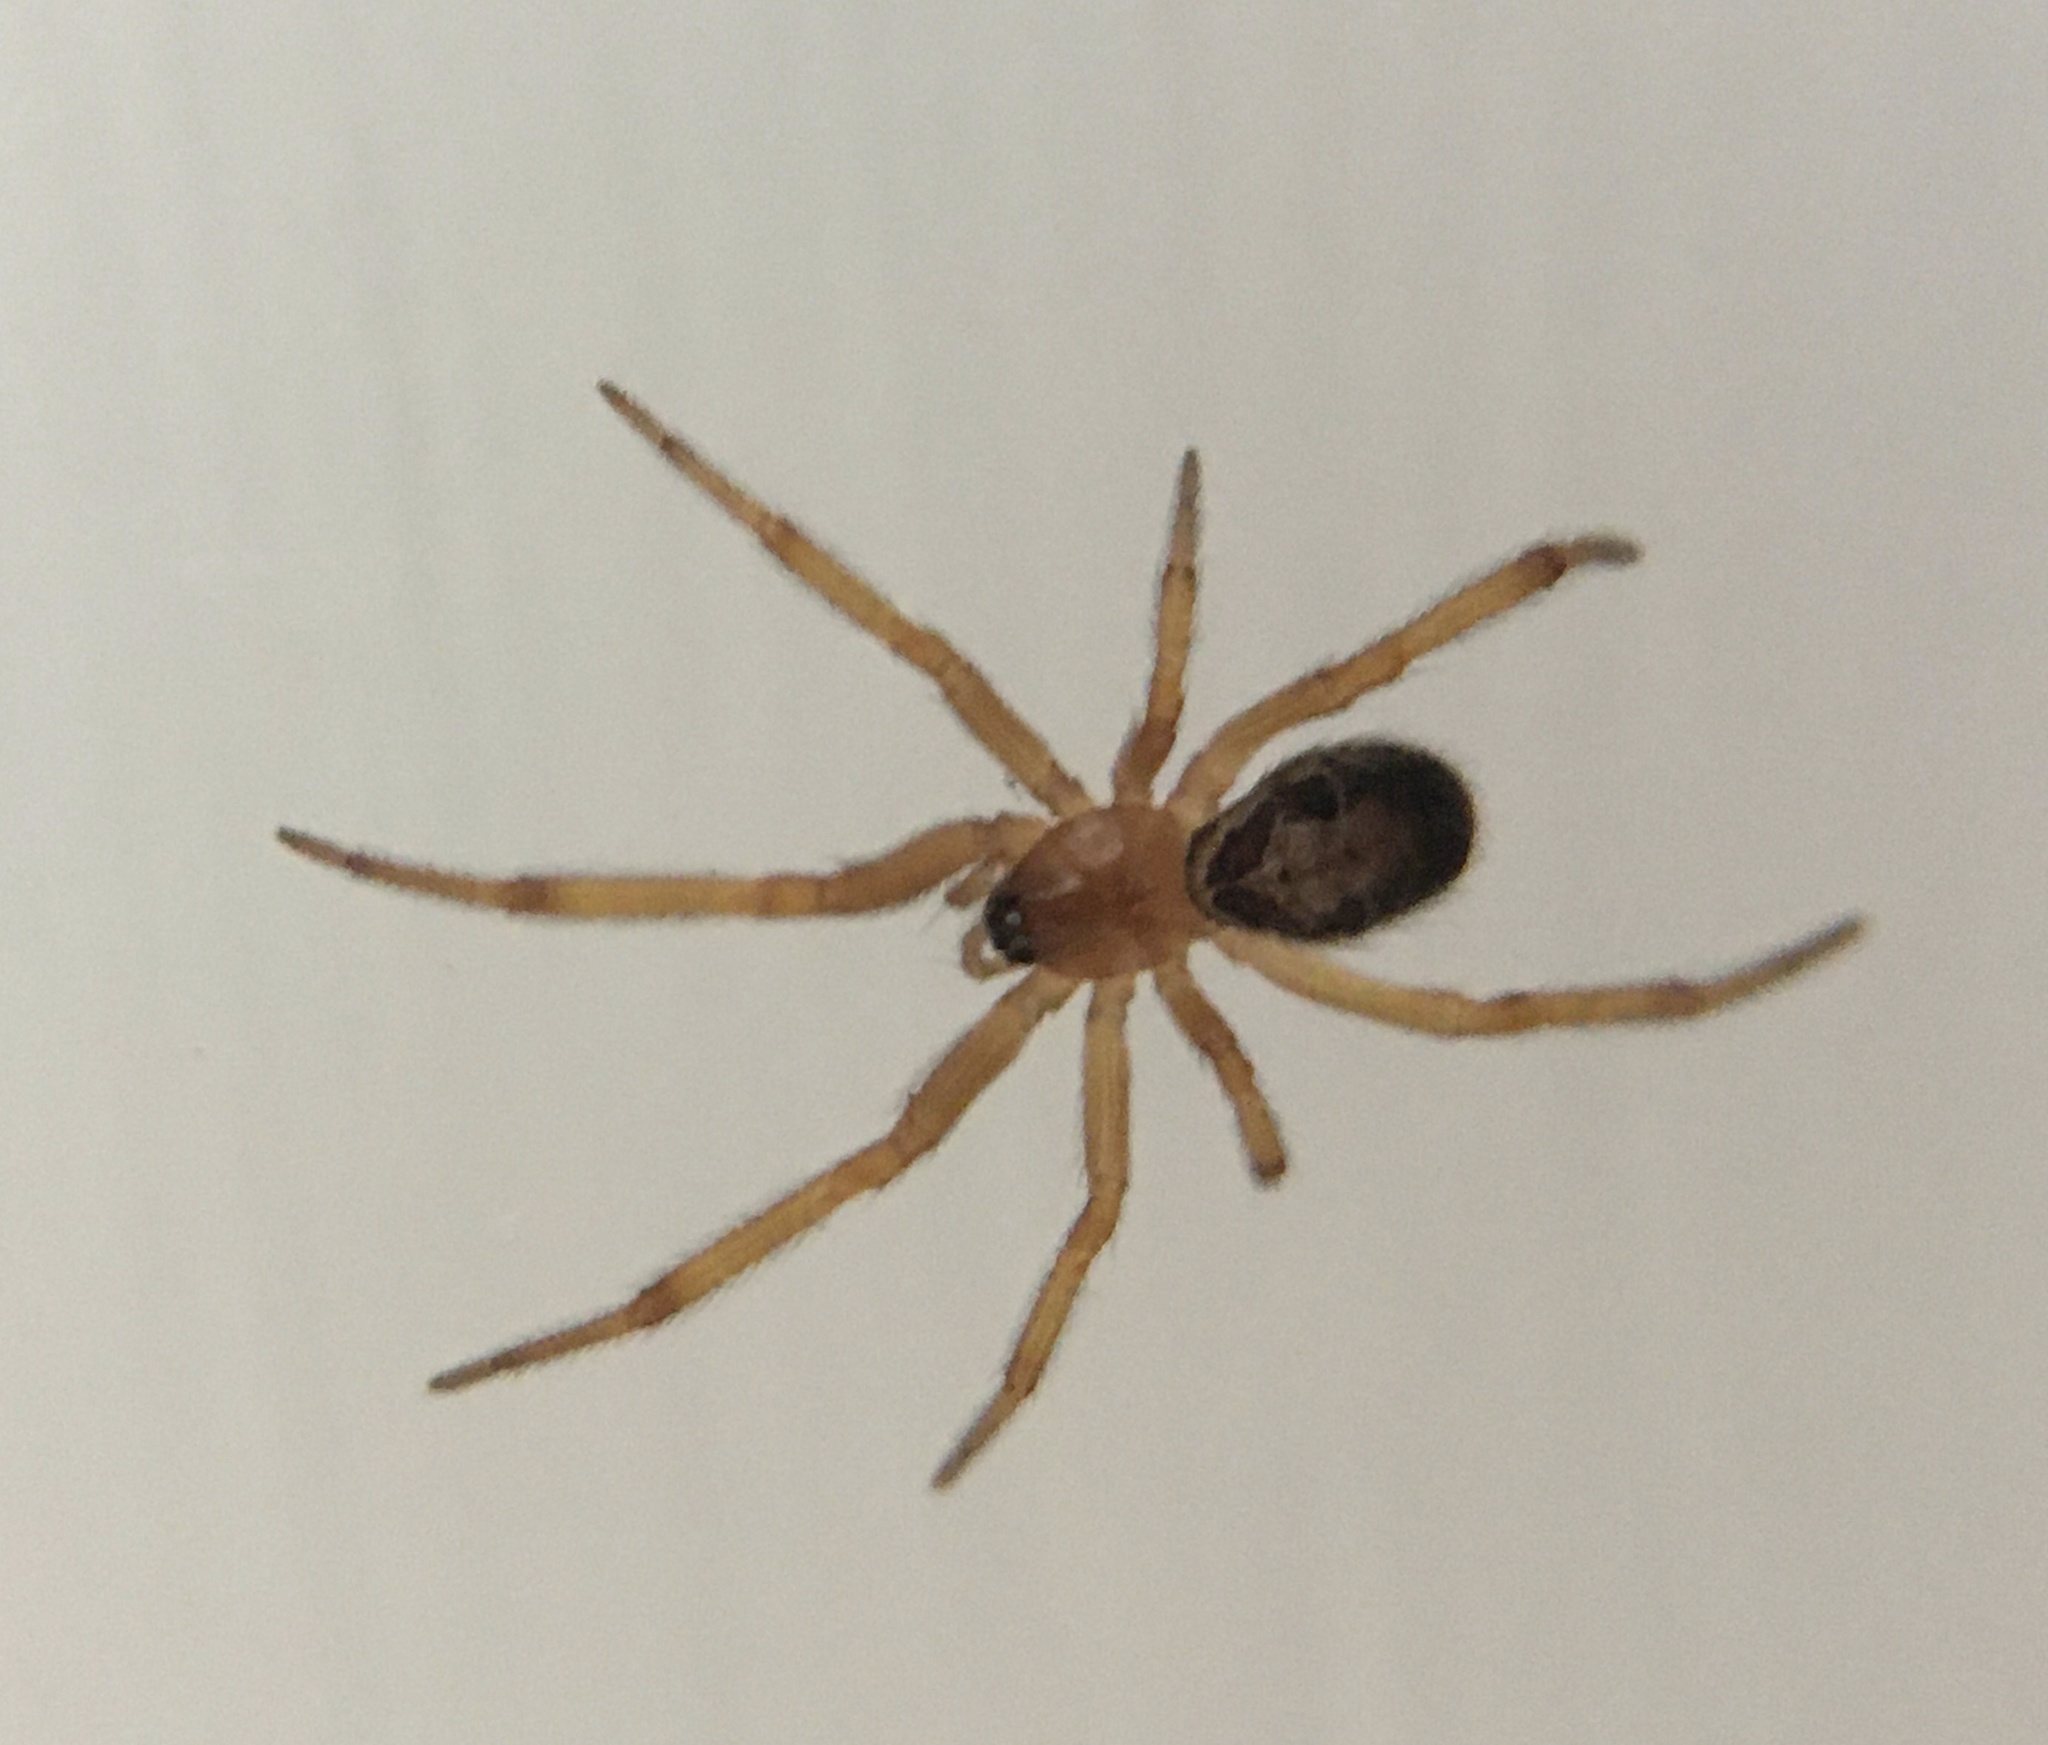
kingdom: Animalia
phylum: Arthropoda
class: Arachnida
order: Araneae
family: Theridiidae
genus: Steatoda
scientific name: Steatoda nobilis
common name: Cobweb weaver
